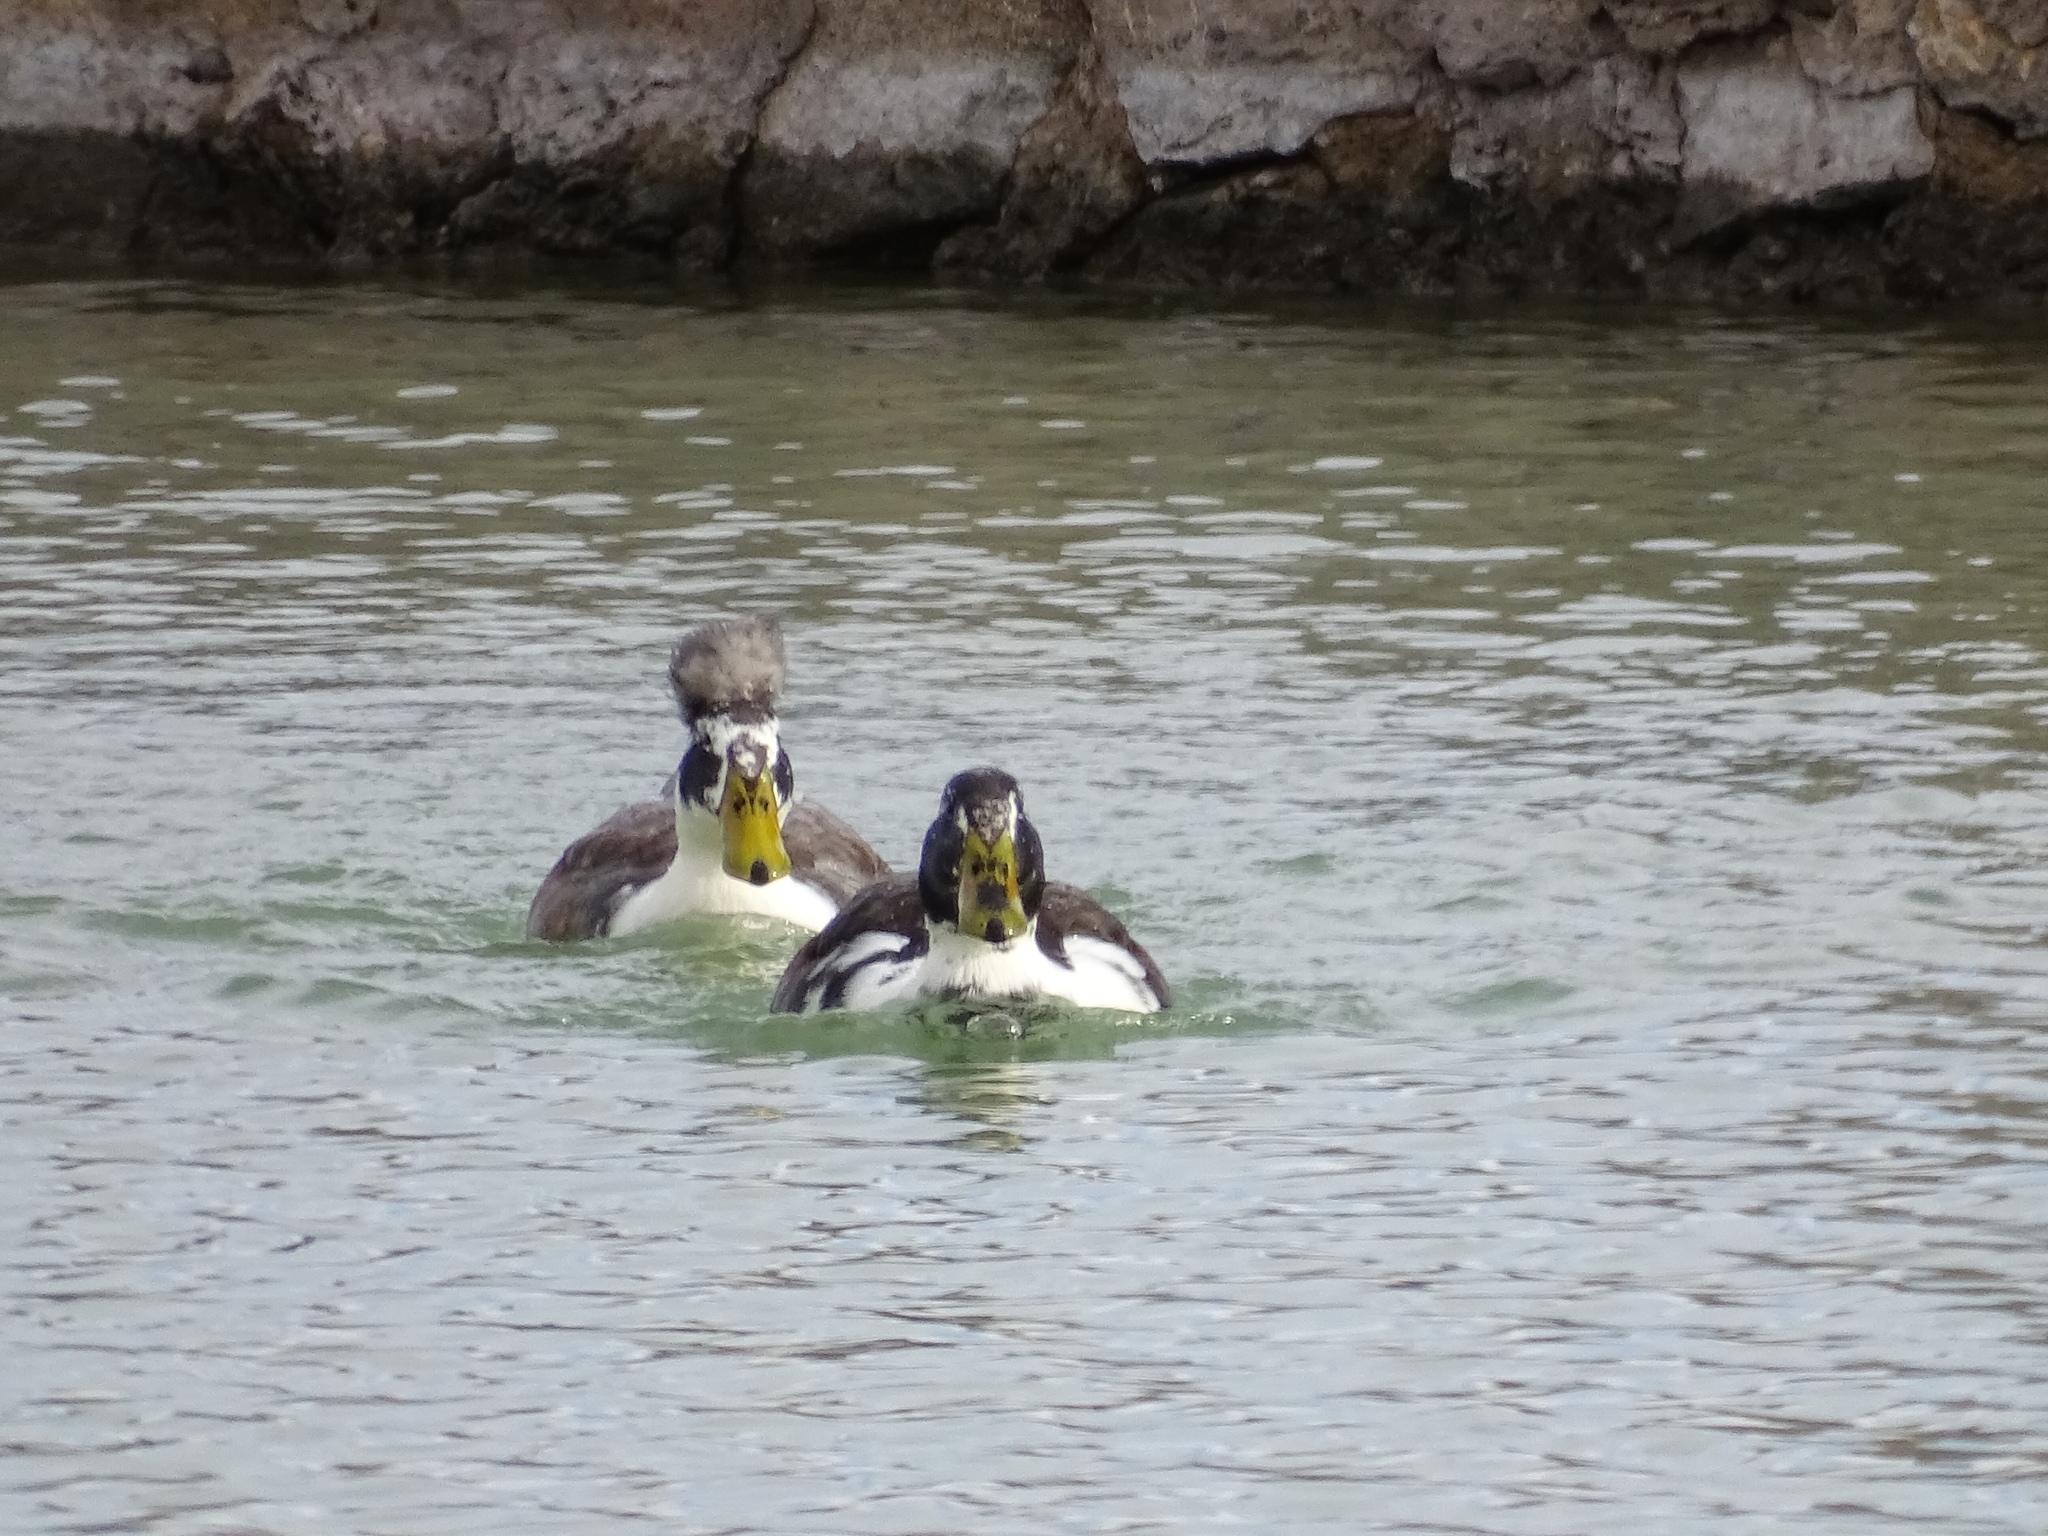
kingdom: Animalia
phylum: Chordata
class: Aves
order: Anseriformes
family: Anatidae
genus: Anas
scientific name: Anas platyrhynchos
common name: Mallard
